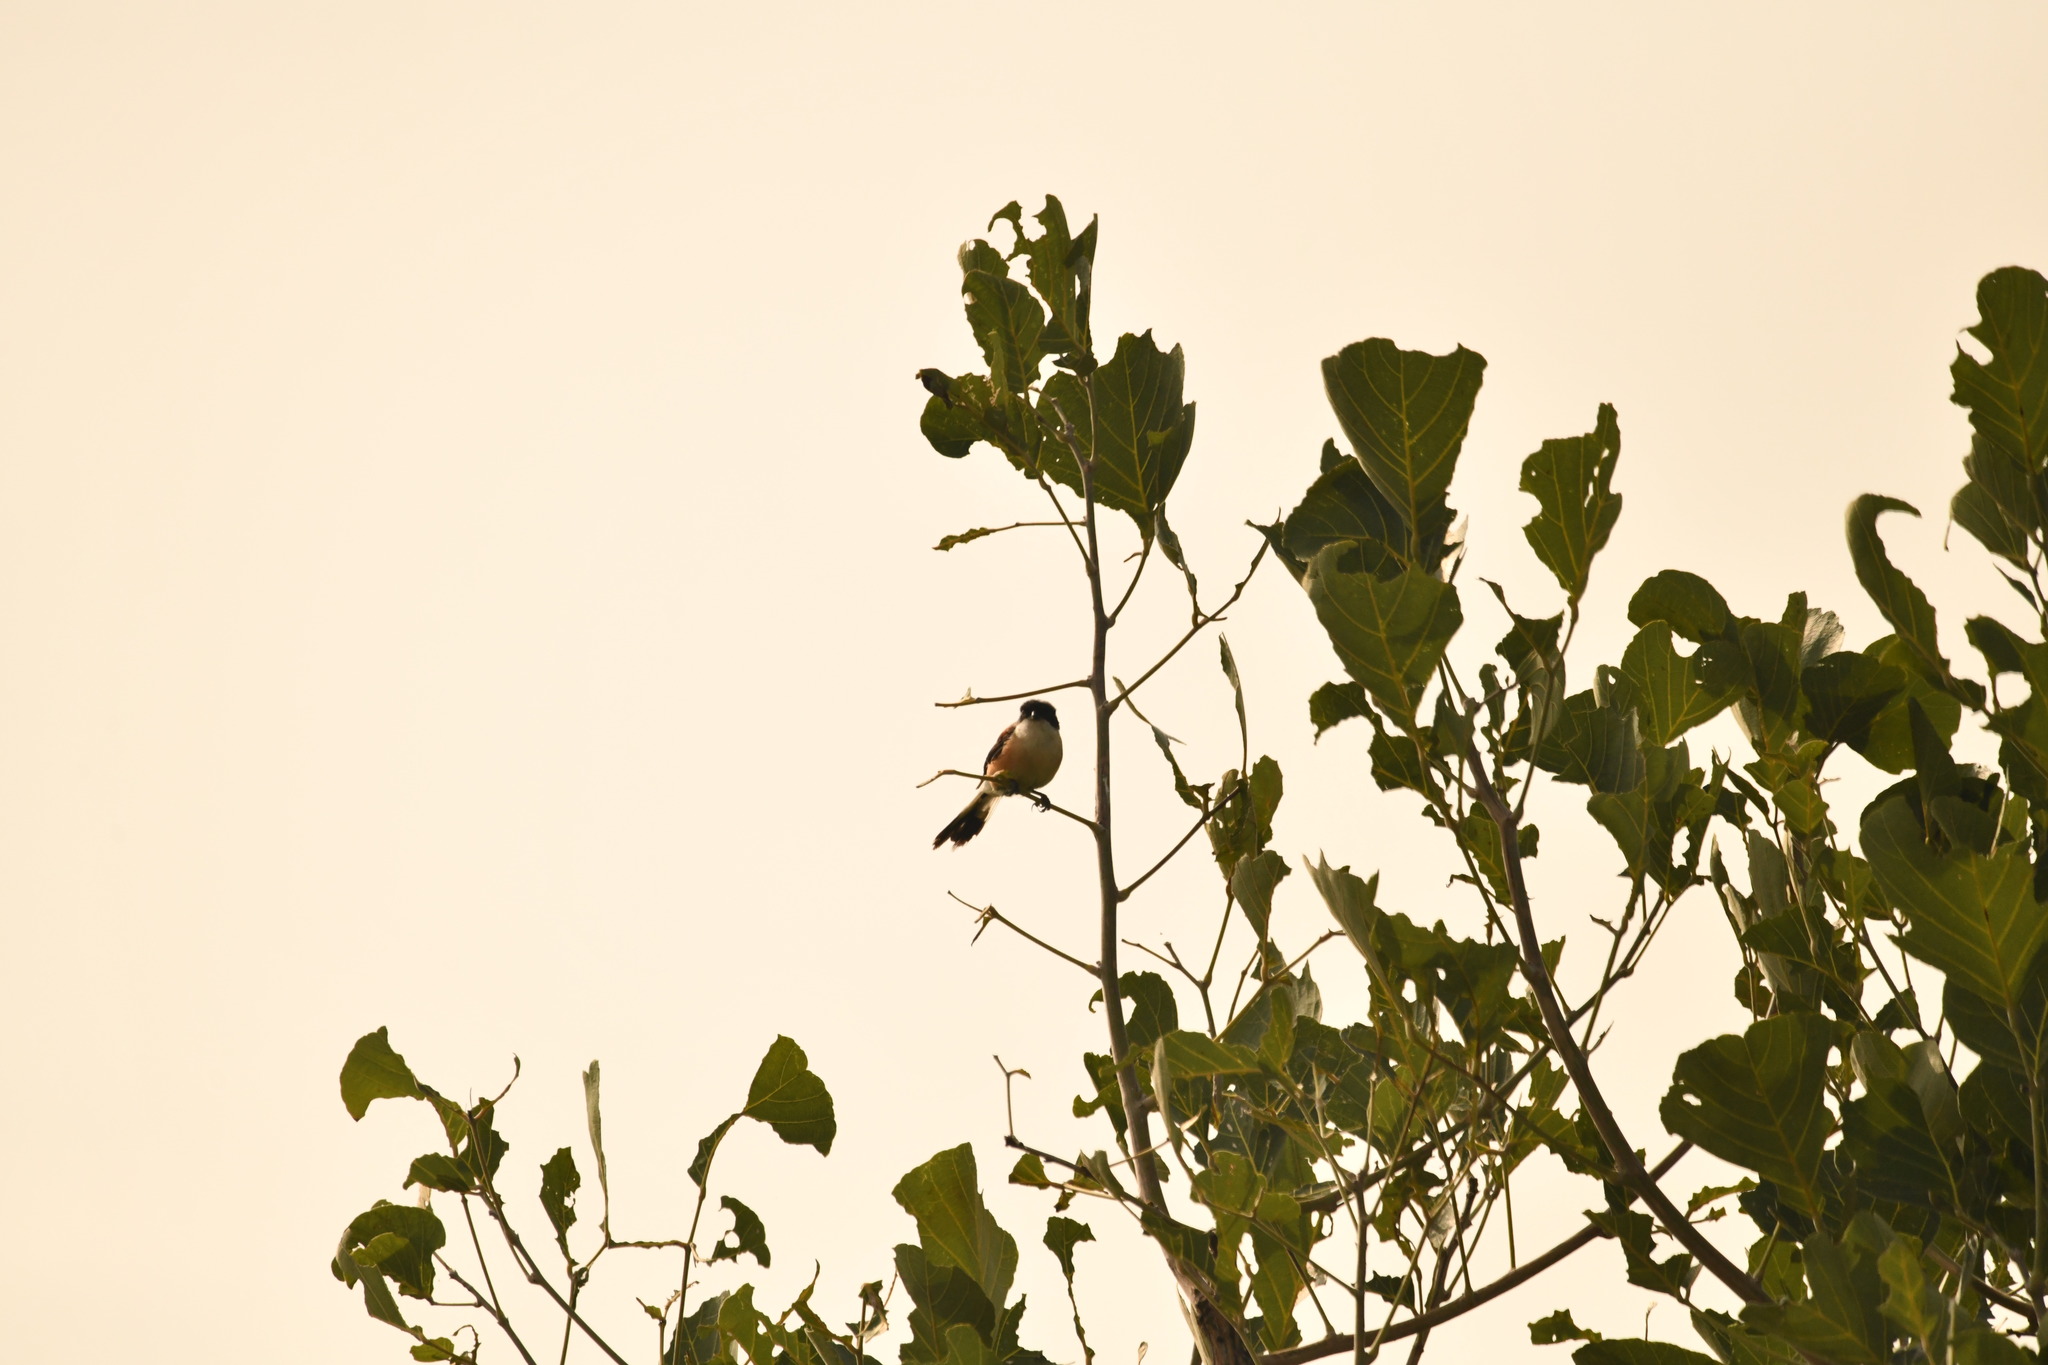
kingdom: Animalia
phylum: Chordata
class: Aves
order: Passeriformes
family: Laniidae
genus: Lanius
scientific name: Lanius schach
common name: Long-tailed shrike
